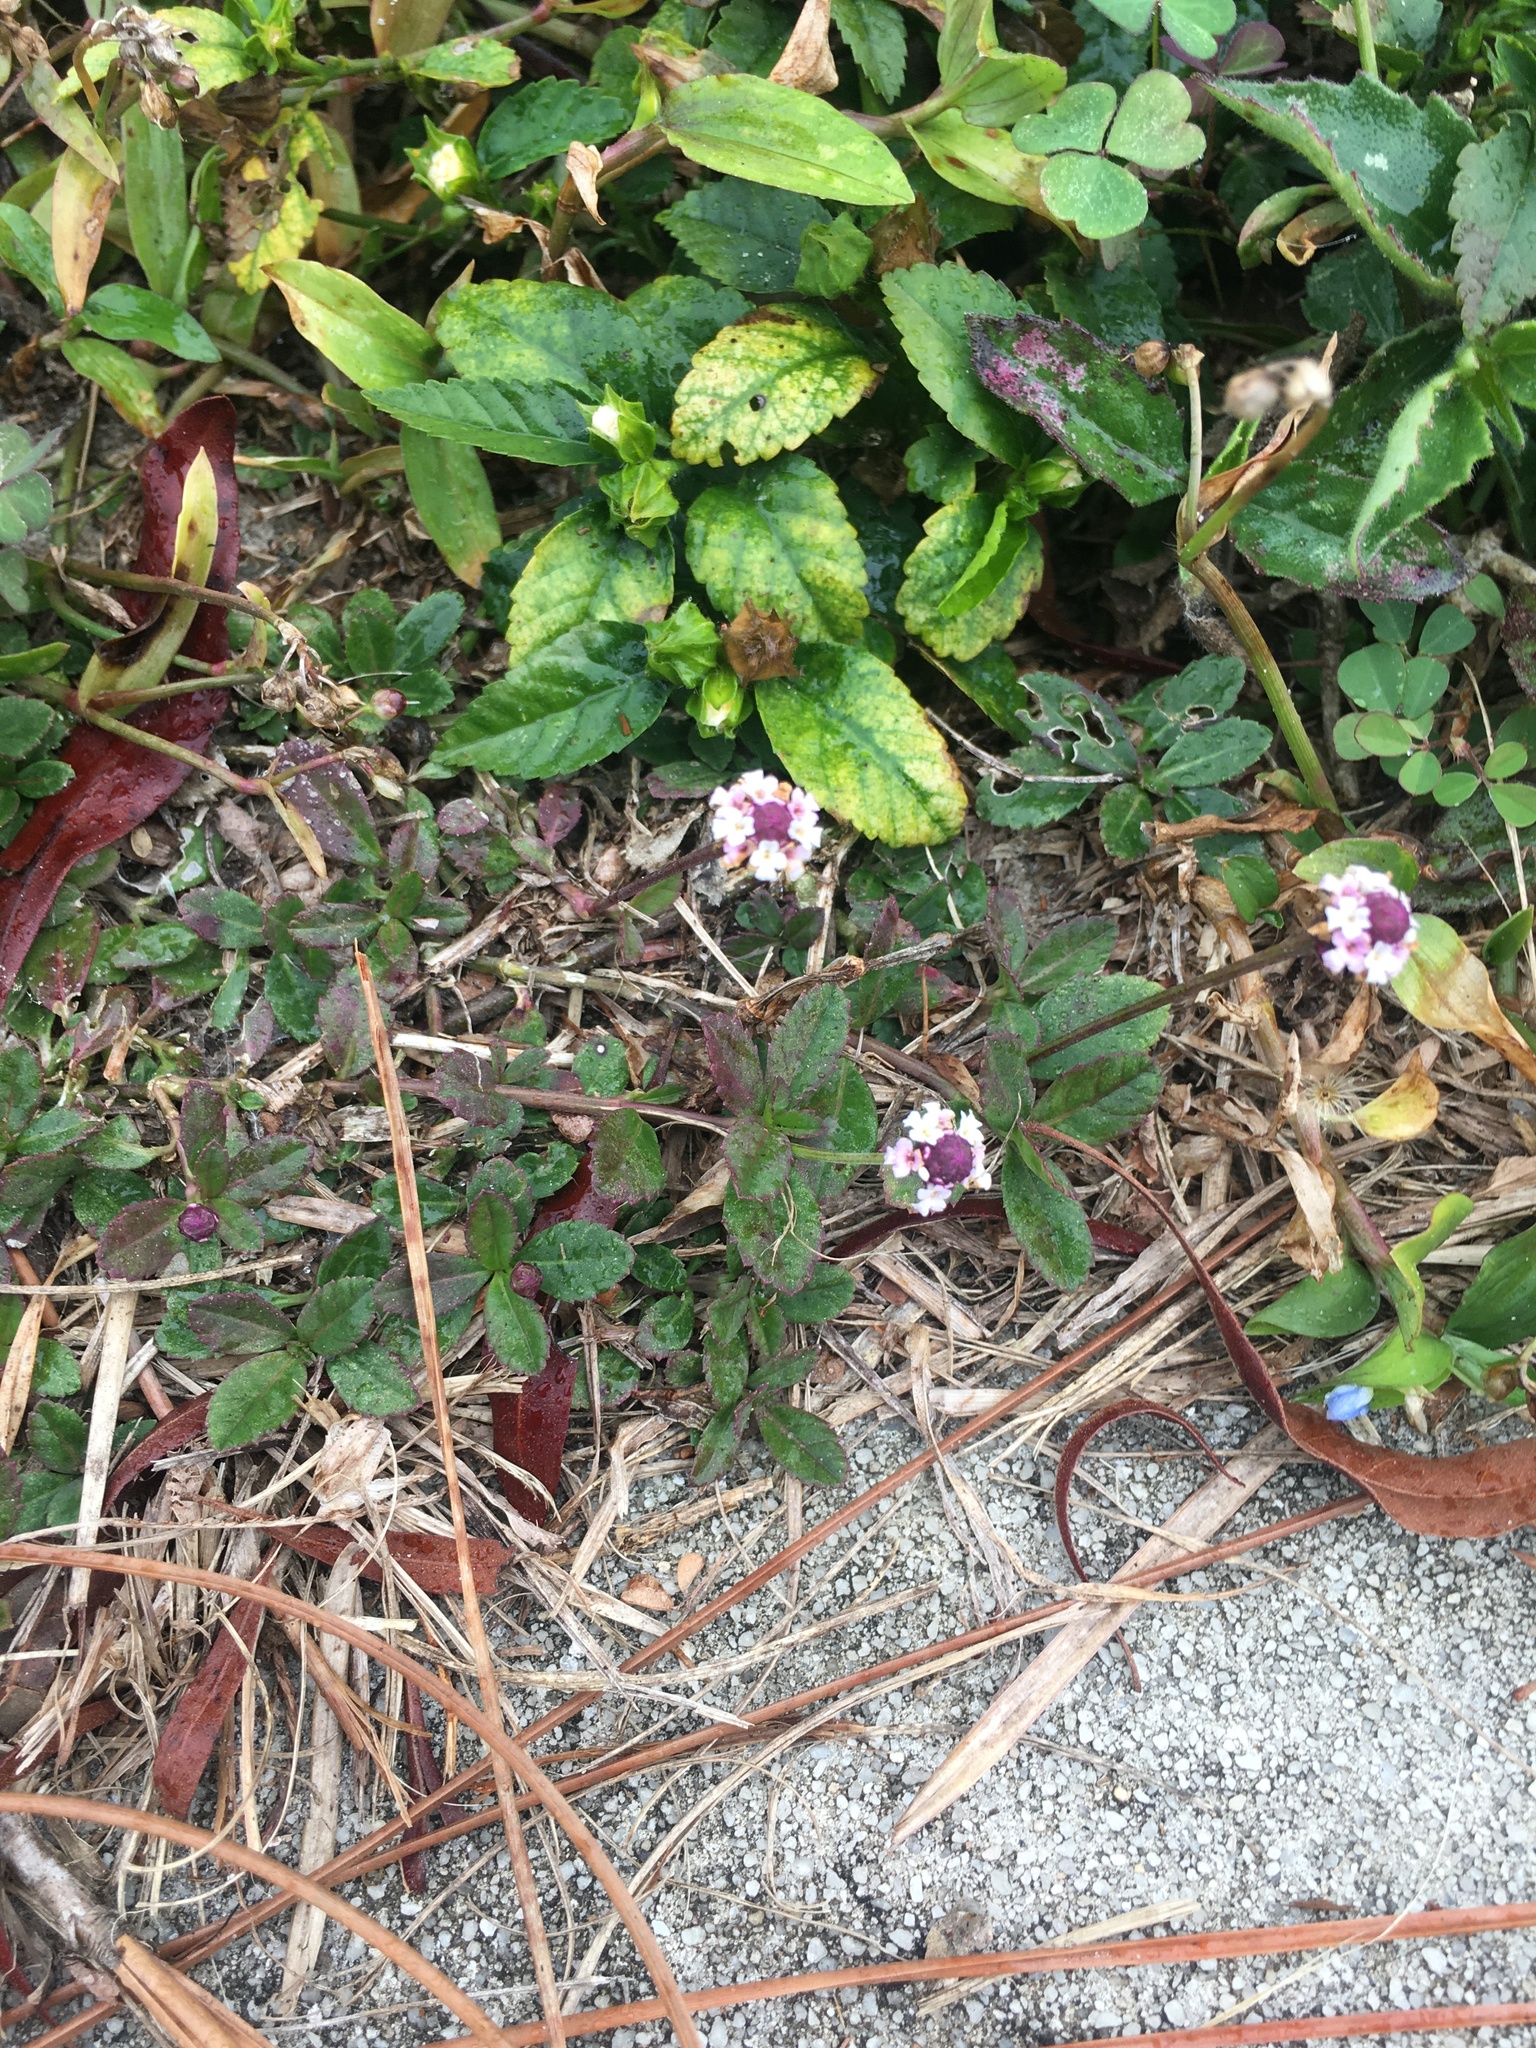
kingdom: Plantae
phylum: Tracheophyta
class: Magnoliopsida
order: Lamiales
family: Verbenaceae
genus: Phyla
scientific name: Phyla nodiflora
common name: Frogfruit
